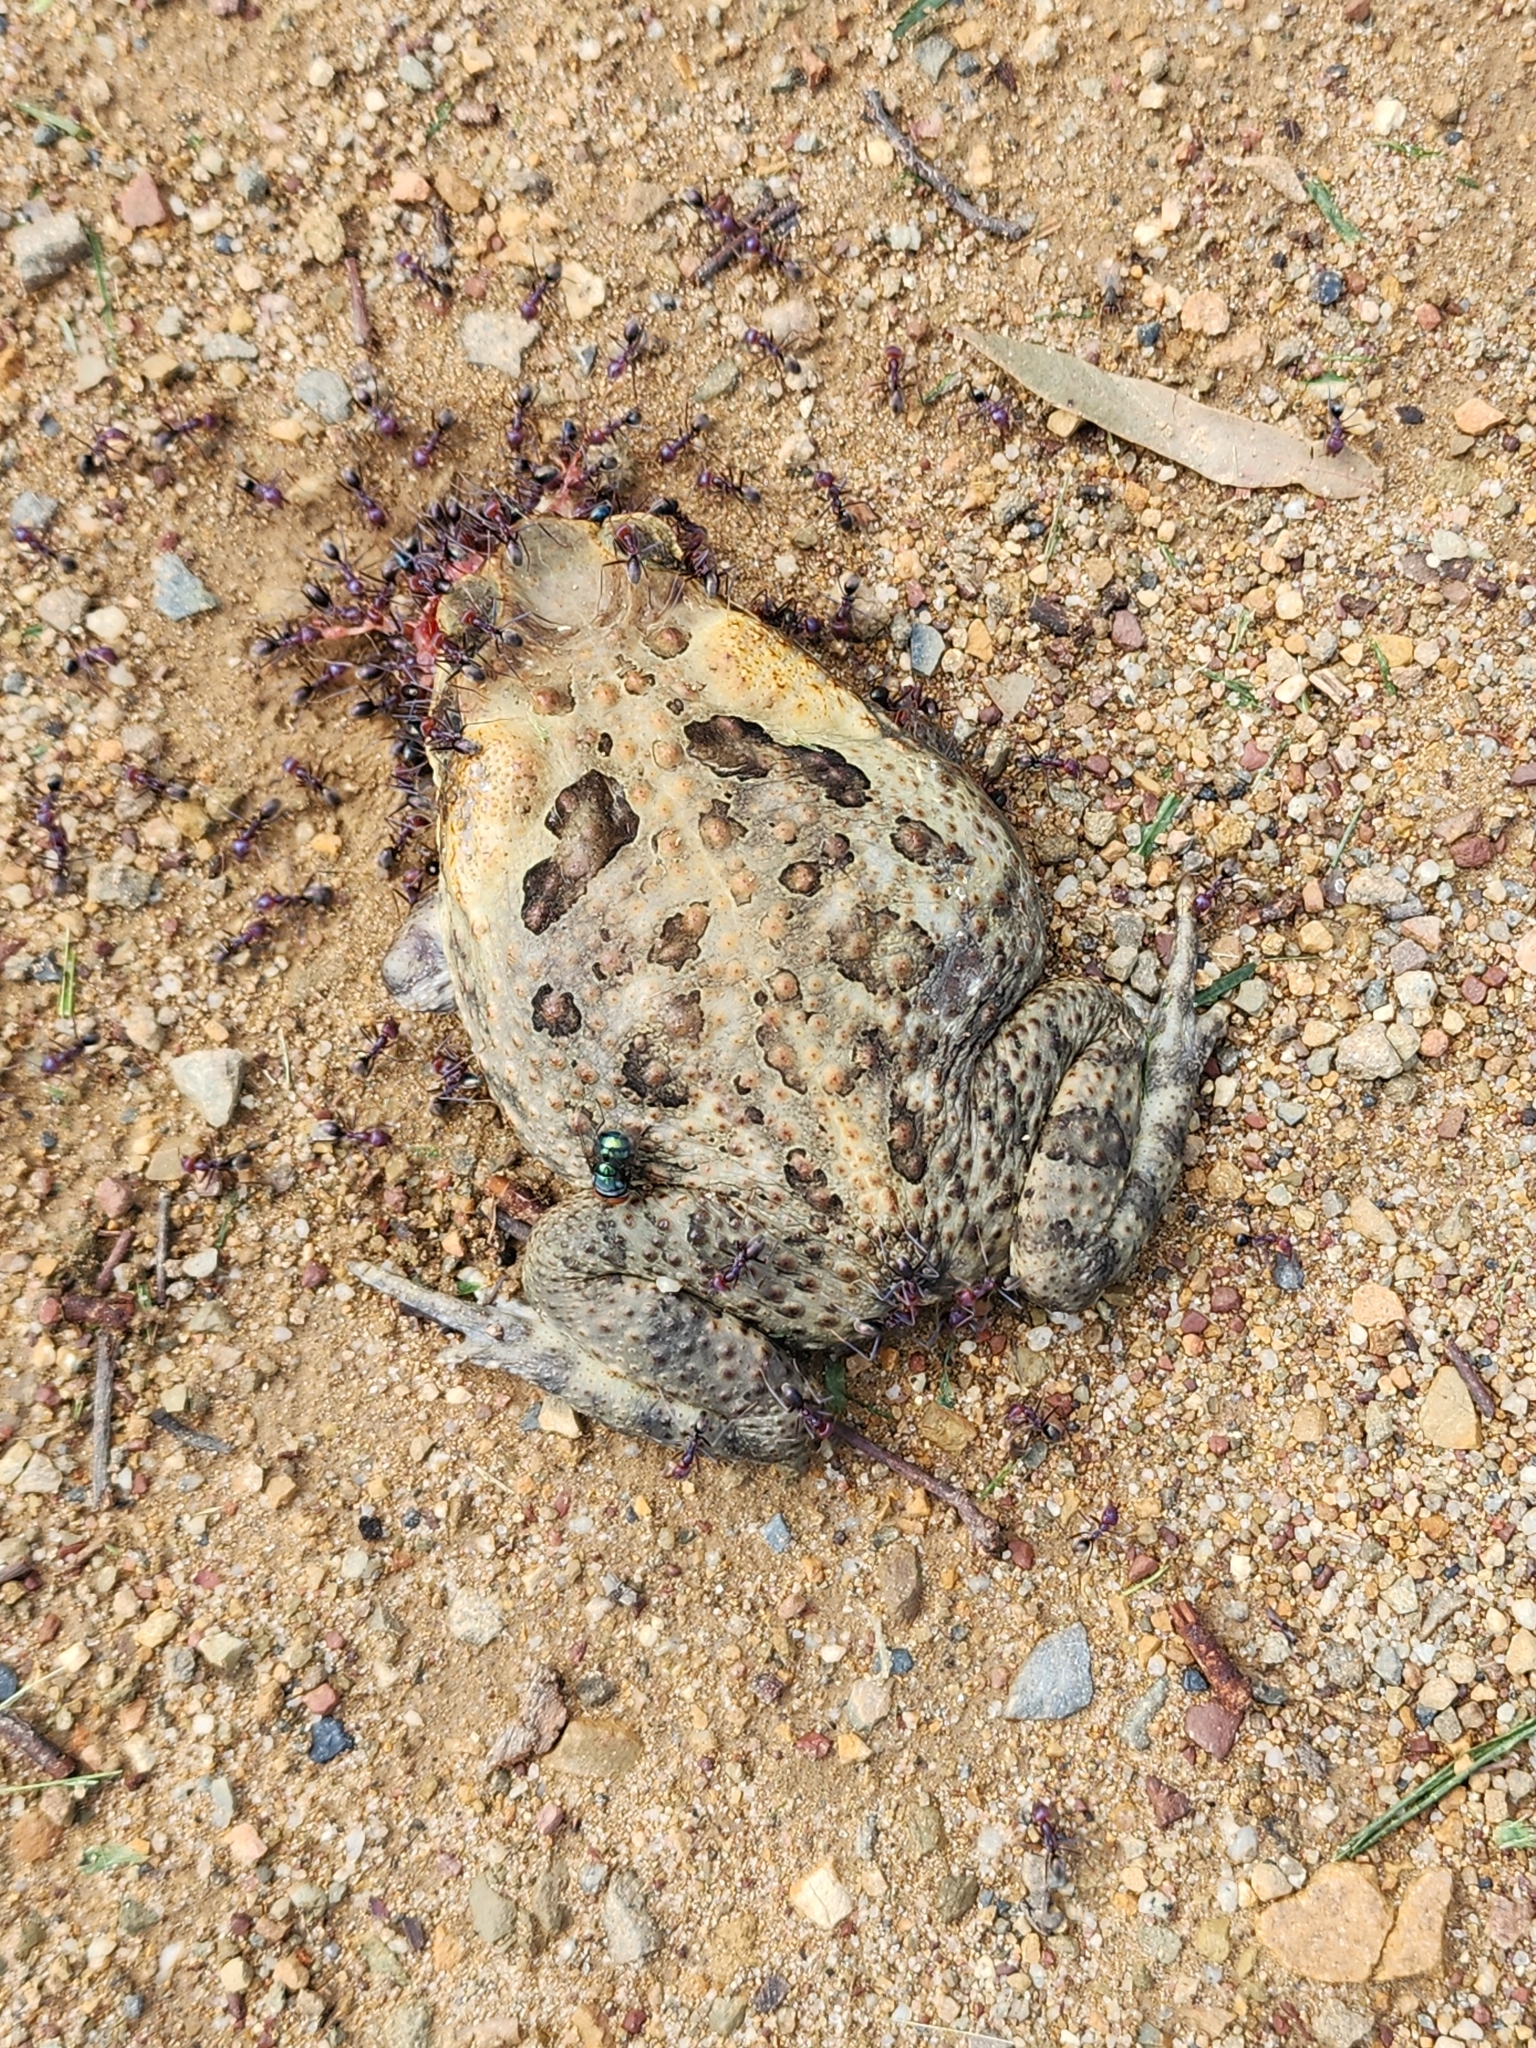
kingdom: Animalia
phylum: Chordata
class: Amphibia
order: Anura
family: Bufonidae
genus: Rhinella
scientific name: Rhinella marina
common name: Cane toad
